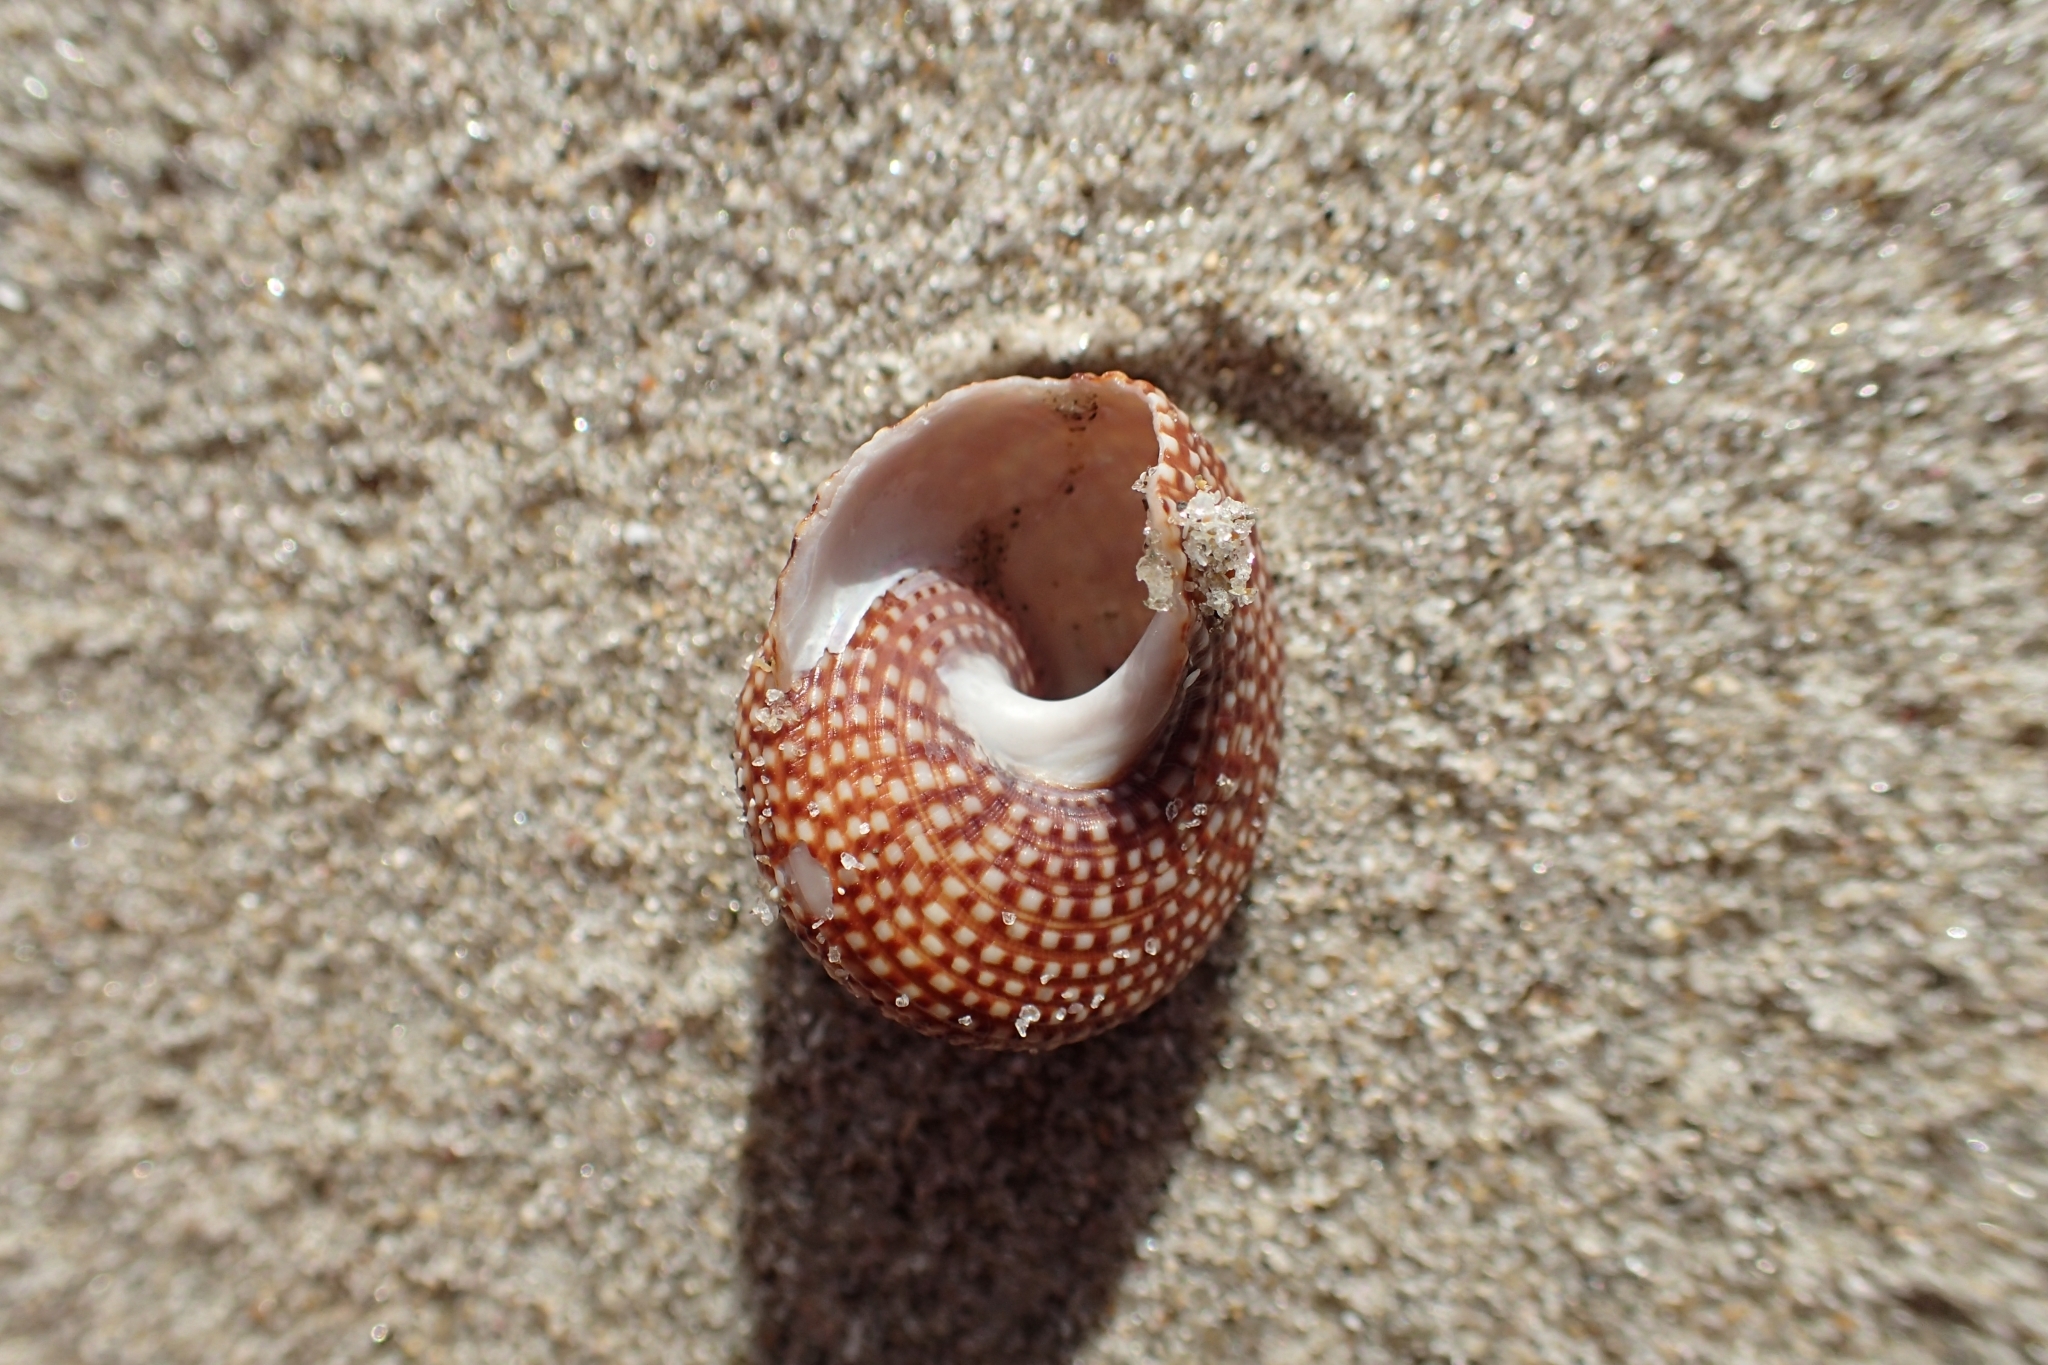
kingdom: Animalia
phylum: Mollusca
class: Gastropoda
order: Trochida
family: Calliostomatidae
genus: Maurea
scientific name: Maurea punctulata
